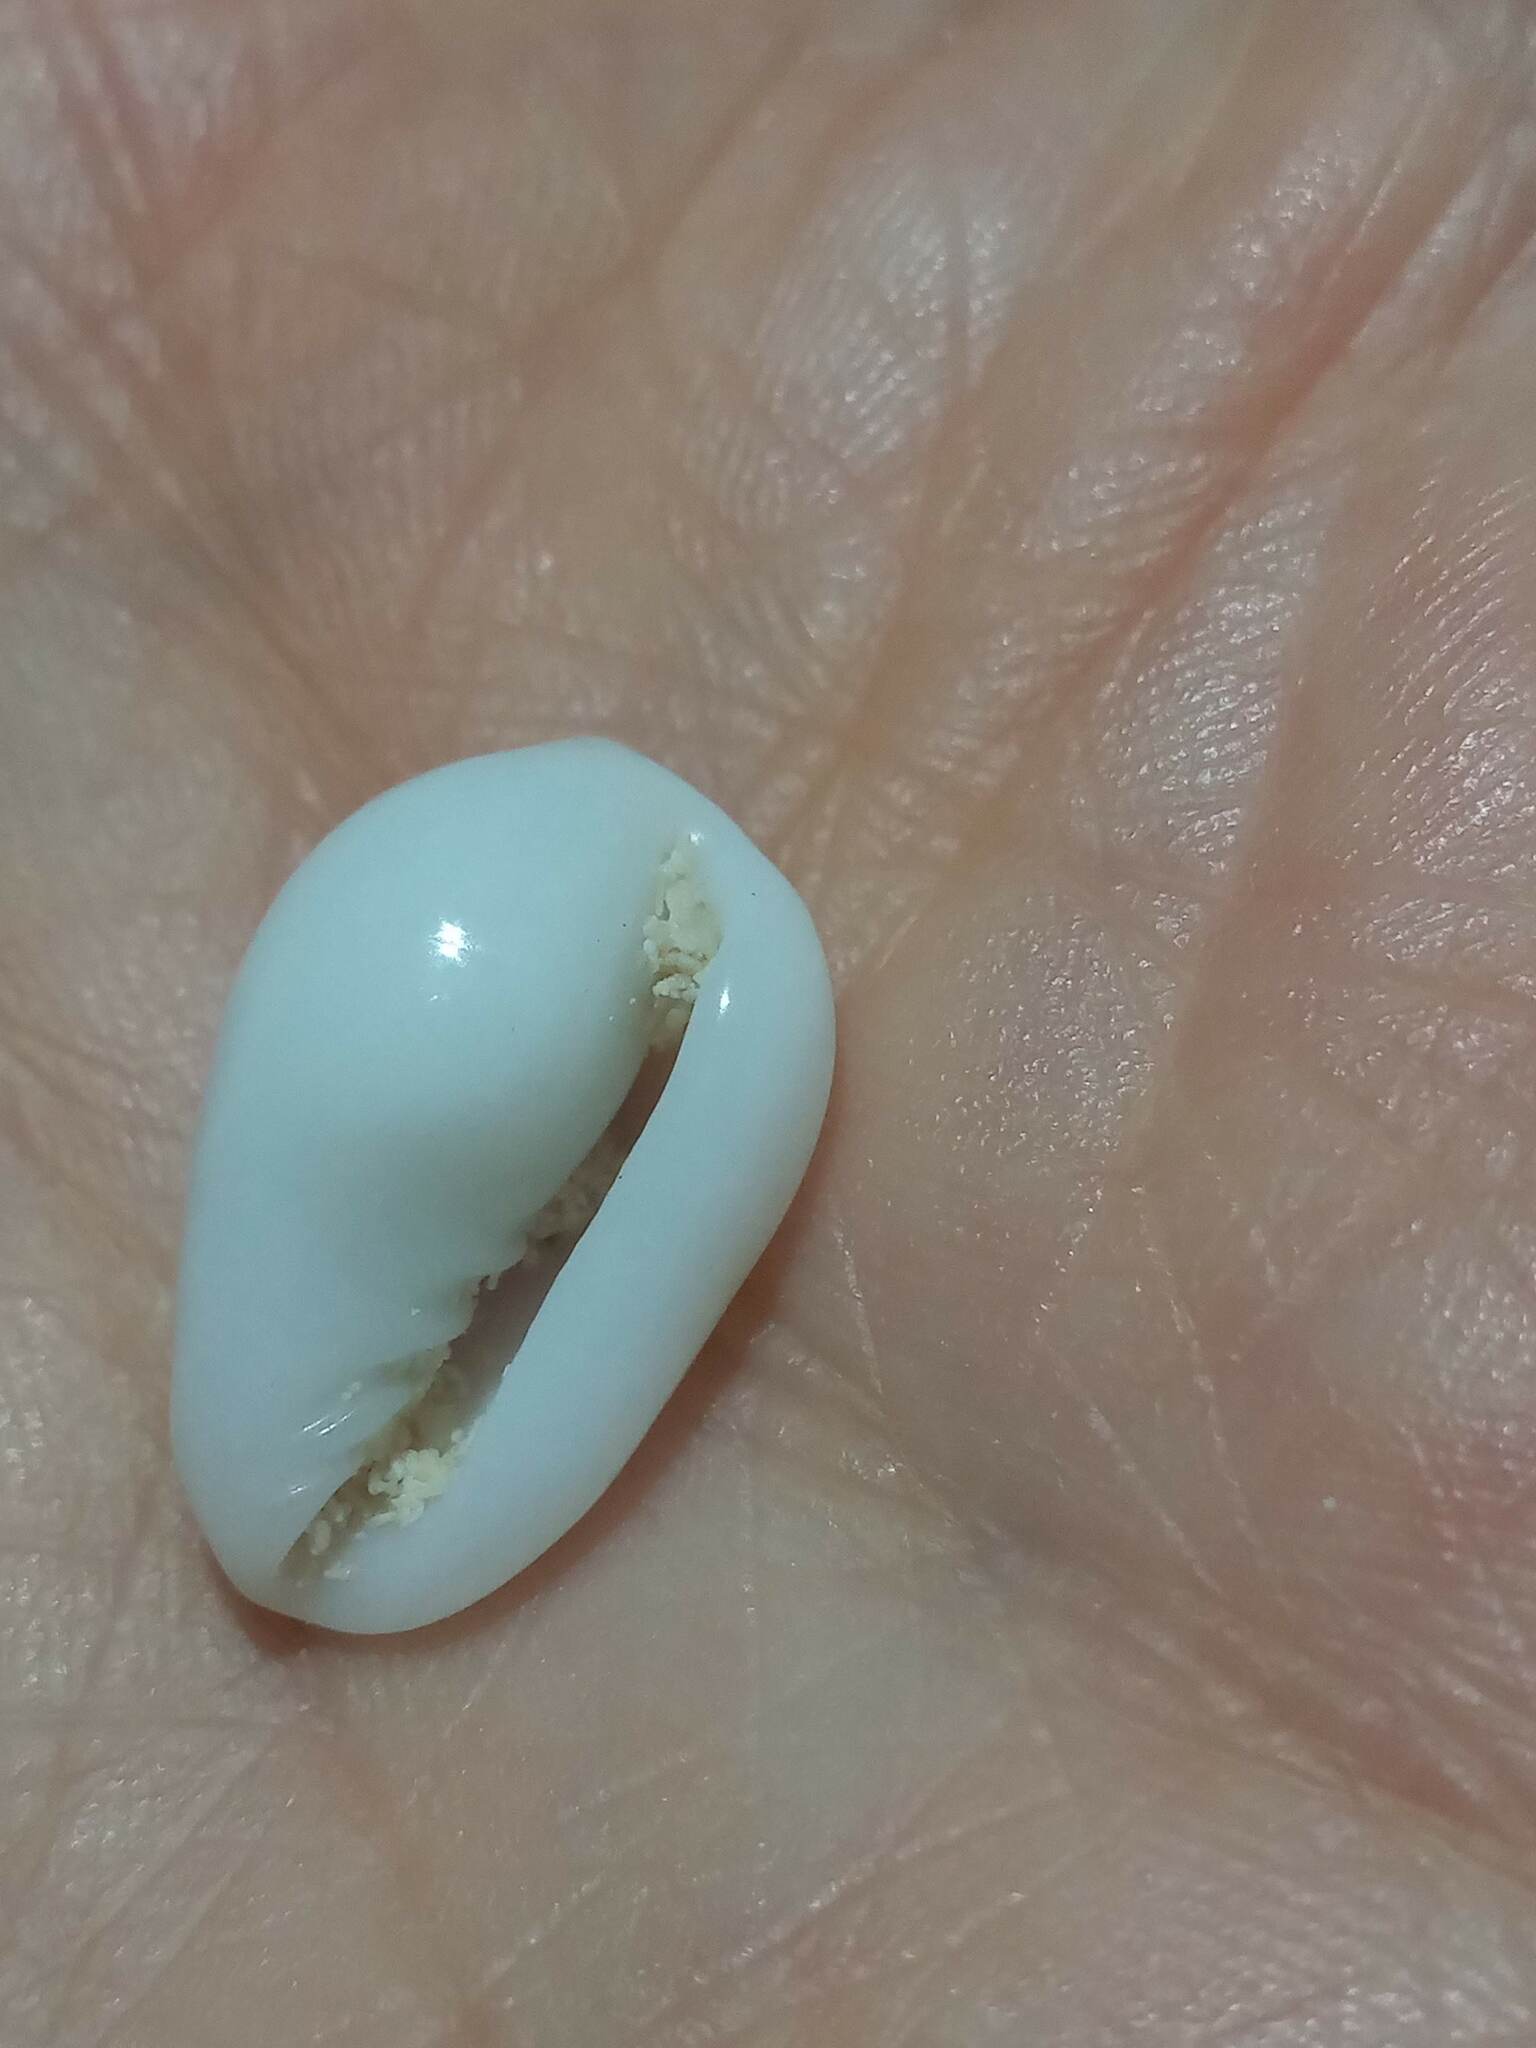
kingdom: Animalia
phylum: Mollusca
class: Gastropoda
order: Neogastropoda
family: Marginellidae
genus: Prunum
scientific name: Prunum pruinosum
